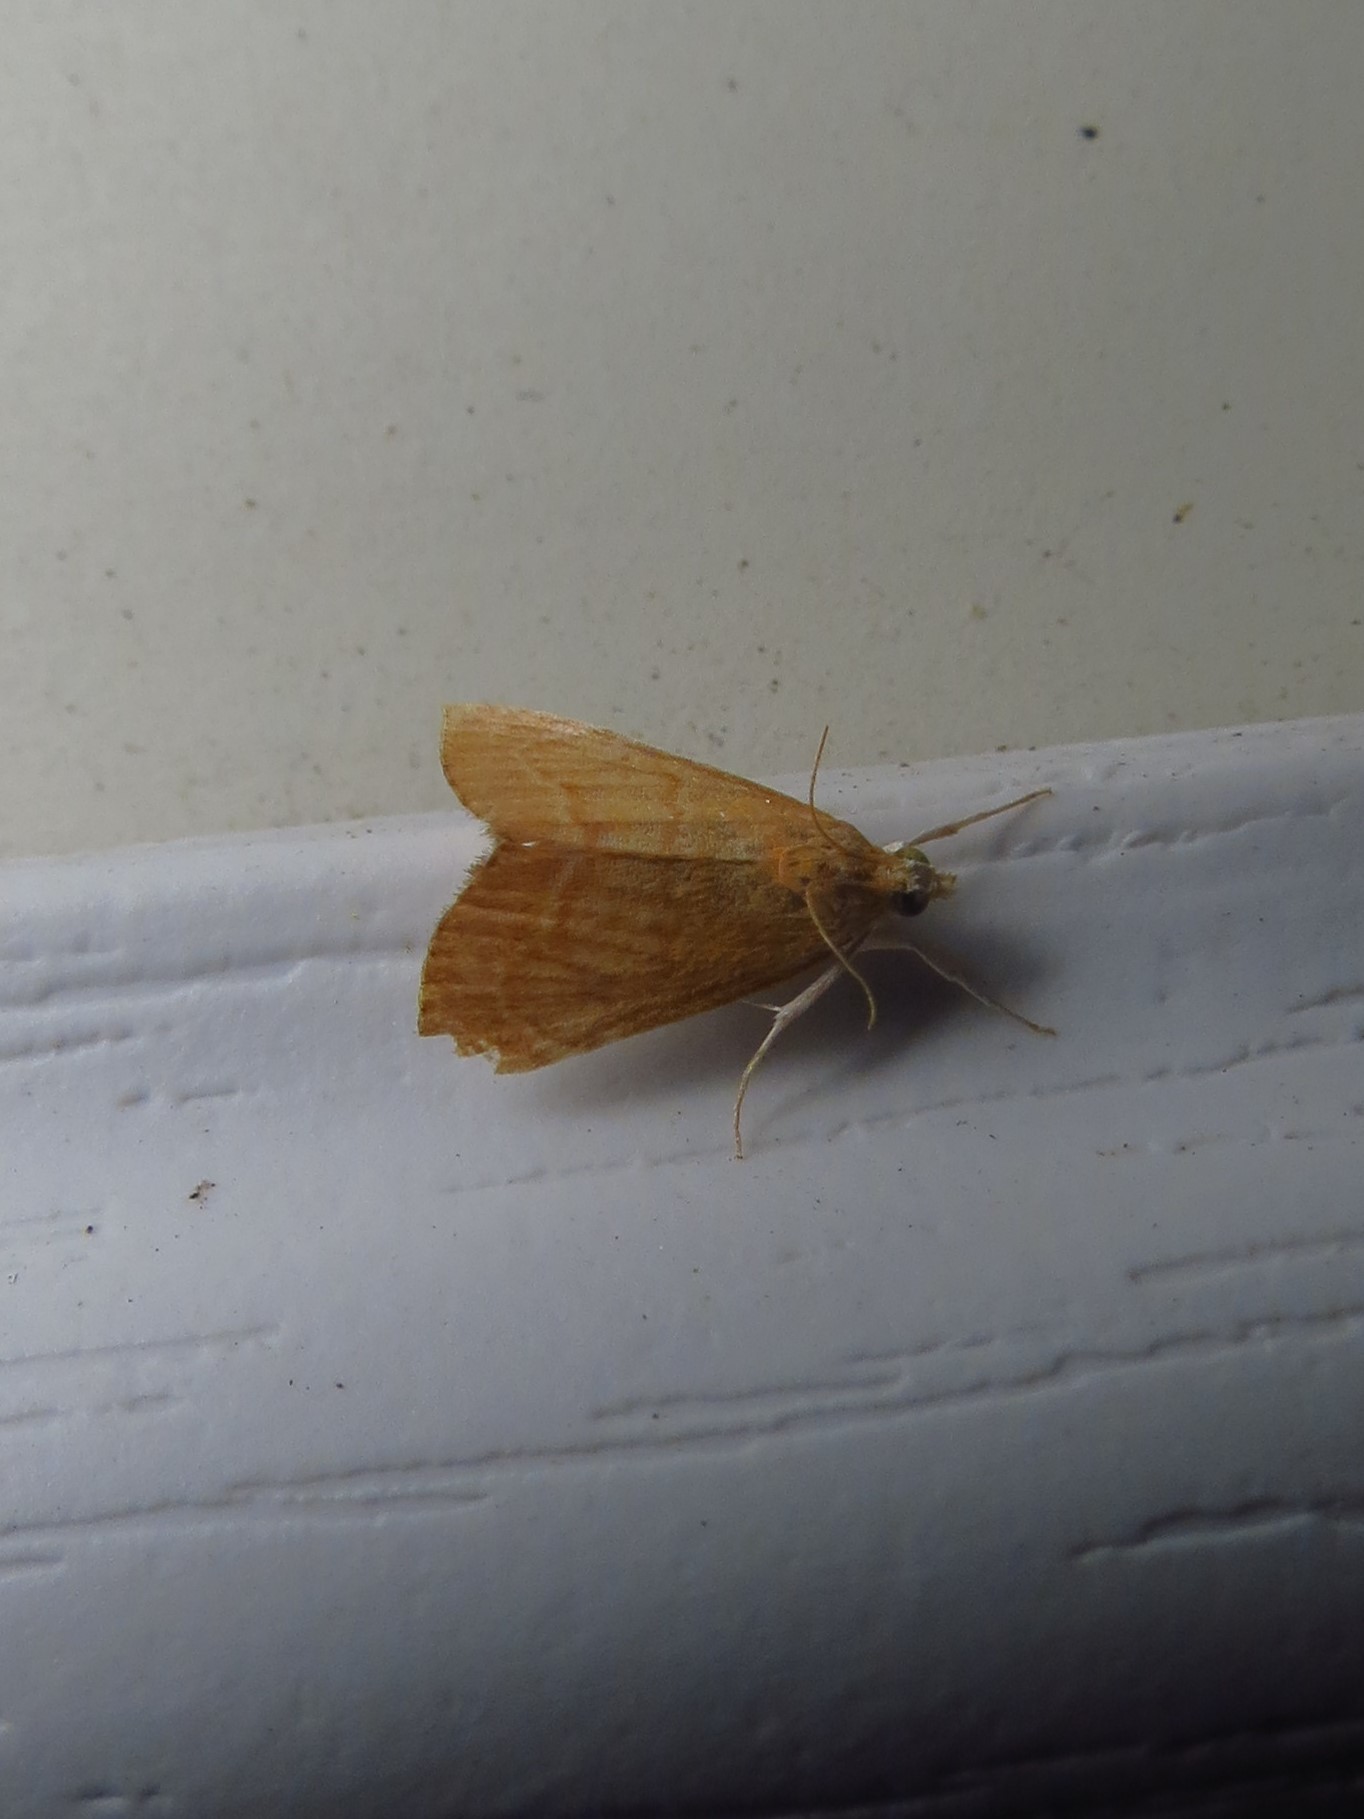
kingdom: Animalia
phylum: Arthropoda
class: Insecta
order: Lepidoptera
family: Crambidae
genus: Glaphyria
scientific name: Glaphyria invisalis
